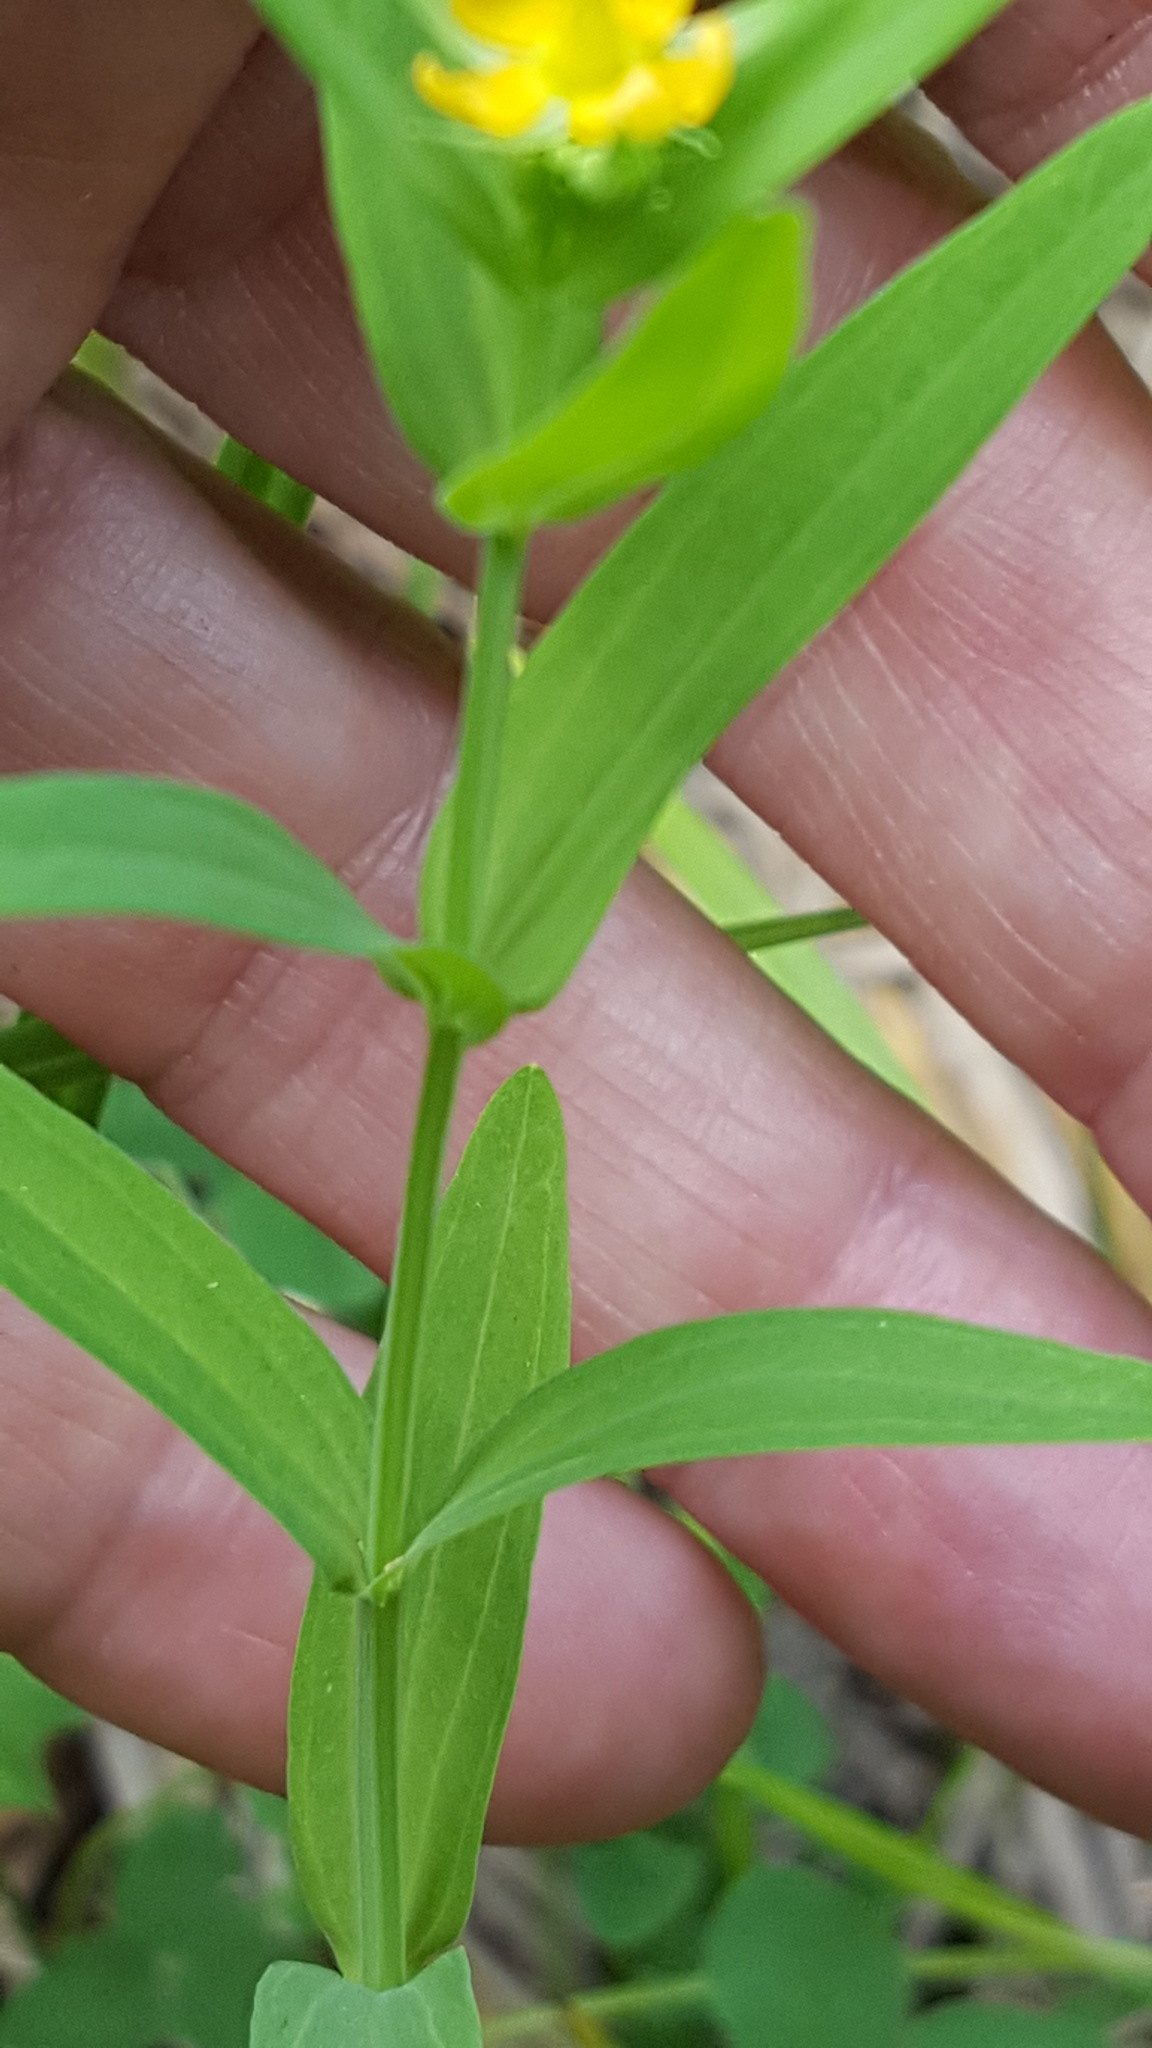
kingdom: Plantae
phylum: Tracheophyta
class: Magnoliopsida
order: Malpighiales
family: Hypericaceae
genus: Hypericum
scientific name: Hypericum majus
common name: Greater canadian st. john's-wort
